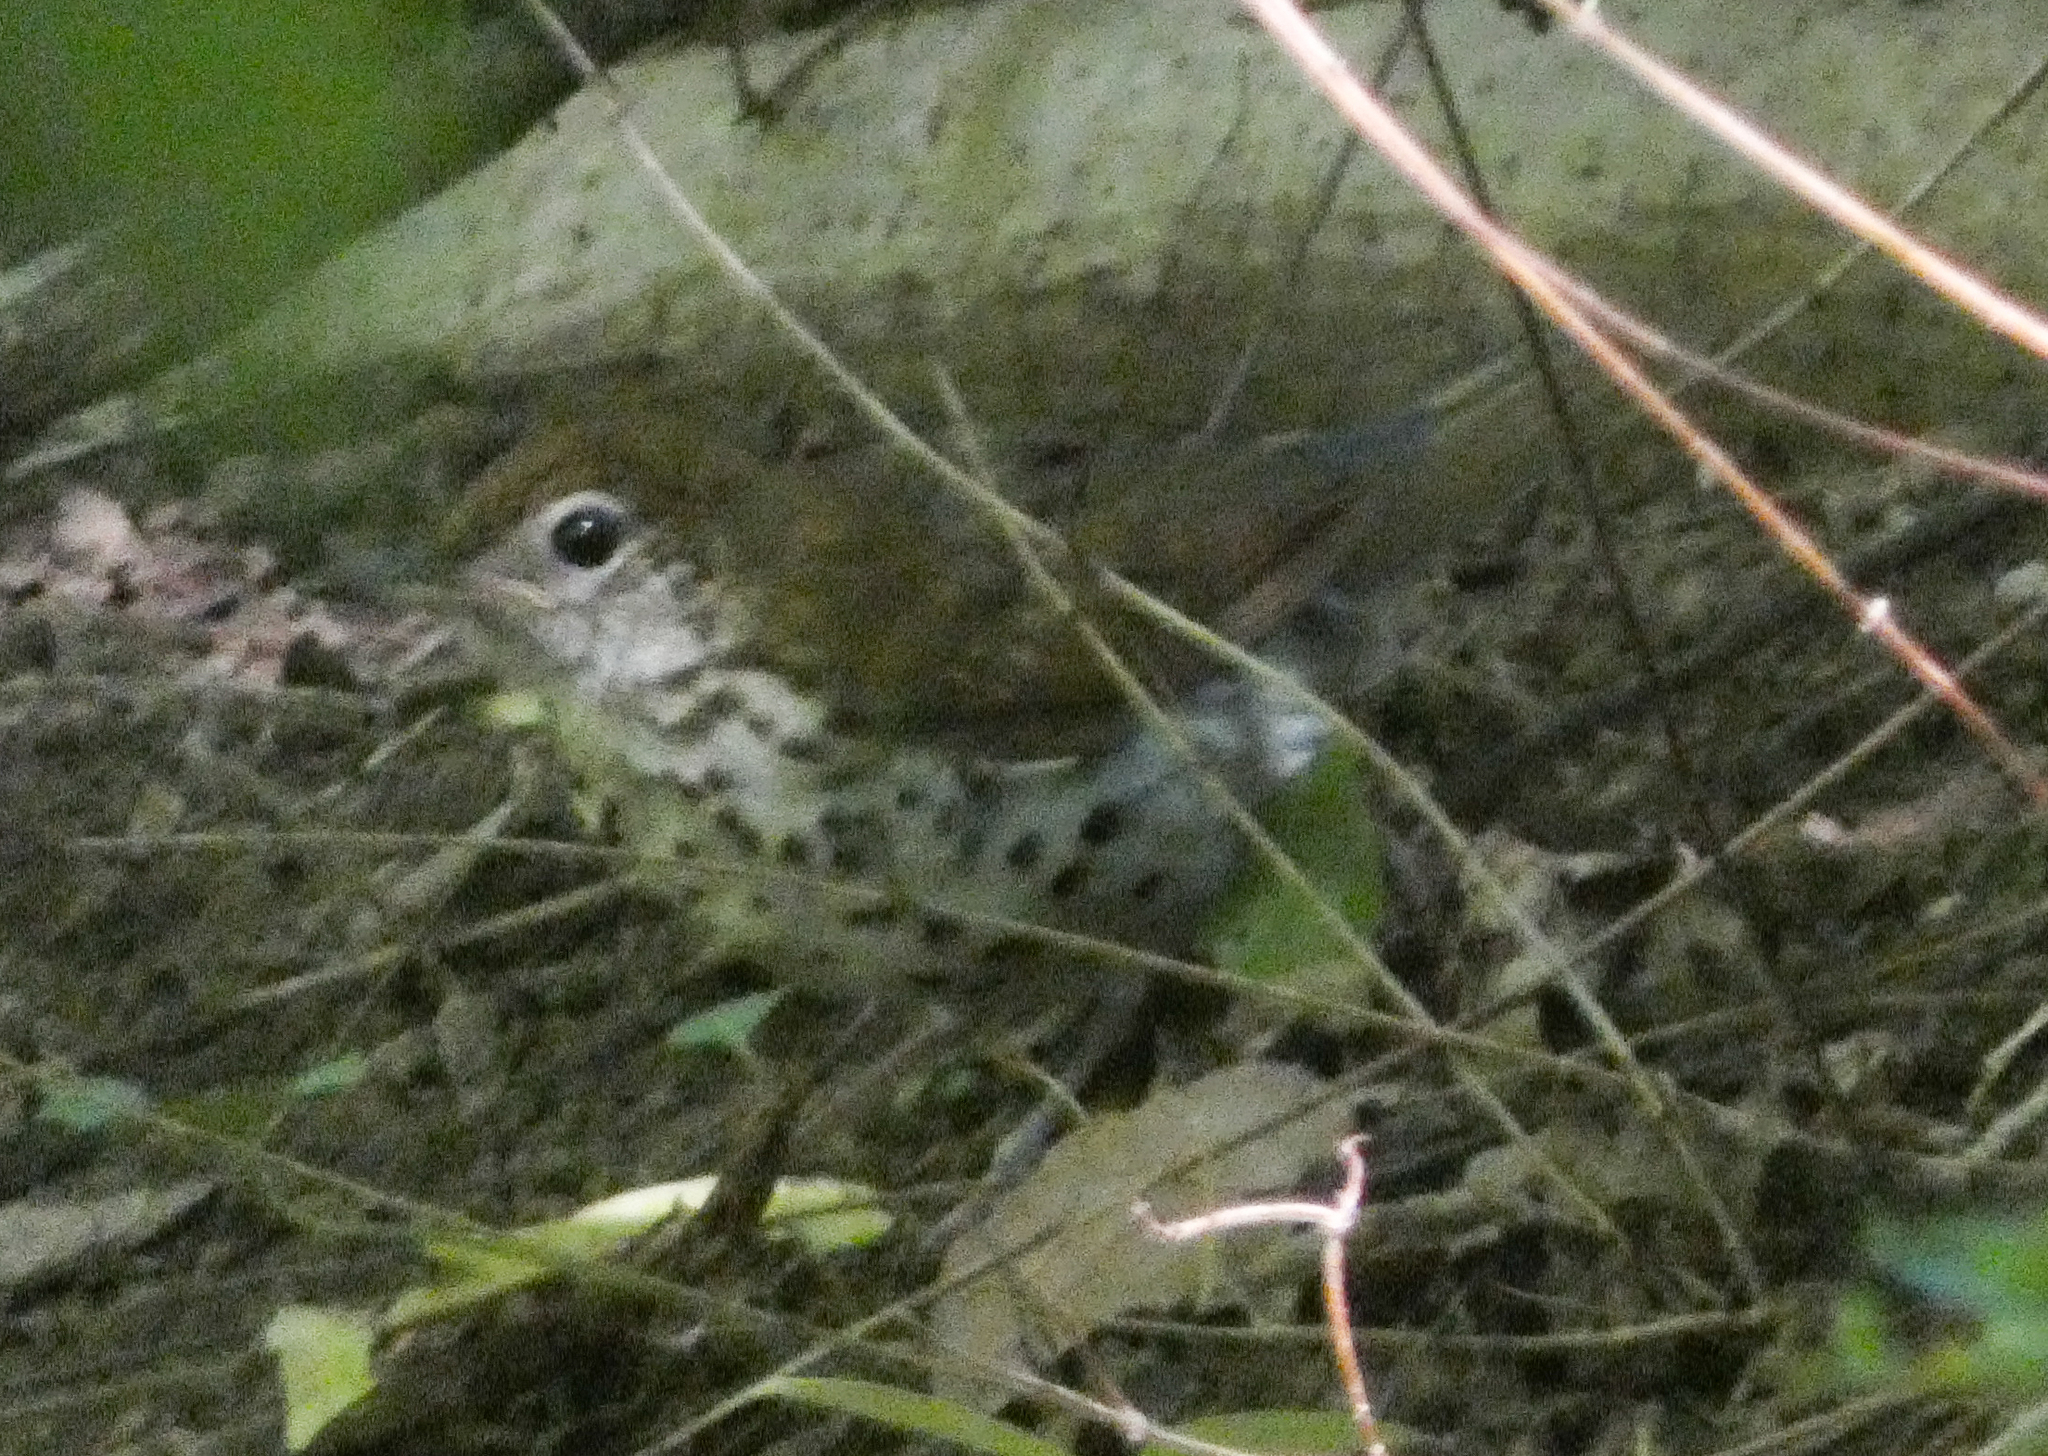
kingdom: Animalia
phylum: Chordata
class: Aves
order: Passeriformes
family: Turdidae
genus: Hylocichla
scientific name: Hylocichla mustelina
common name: Wood thrush
